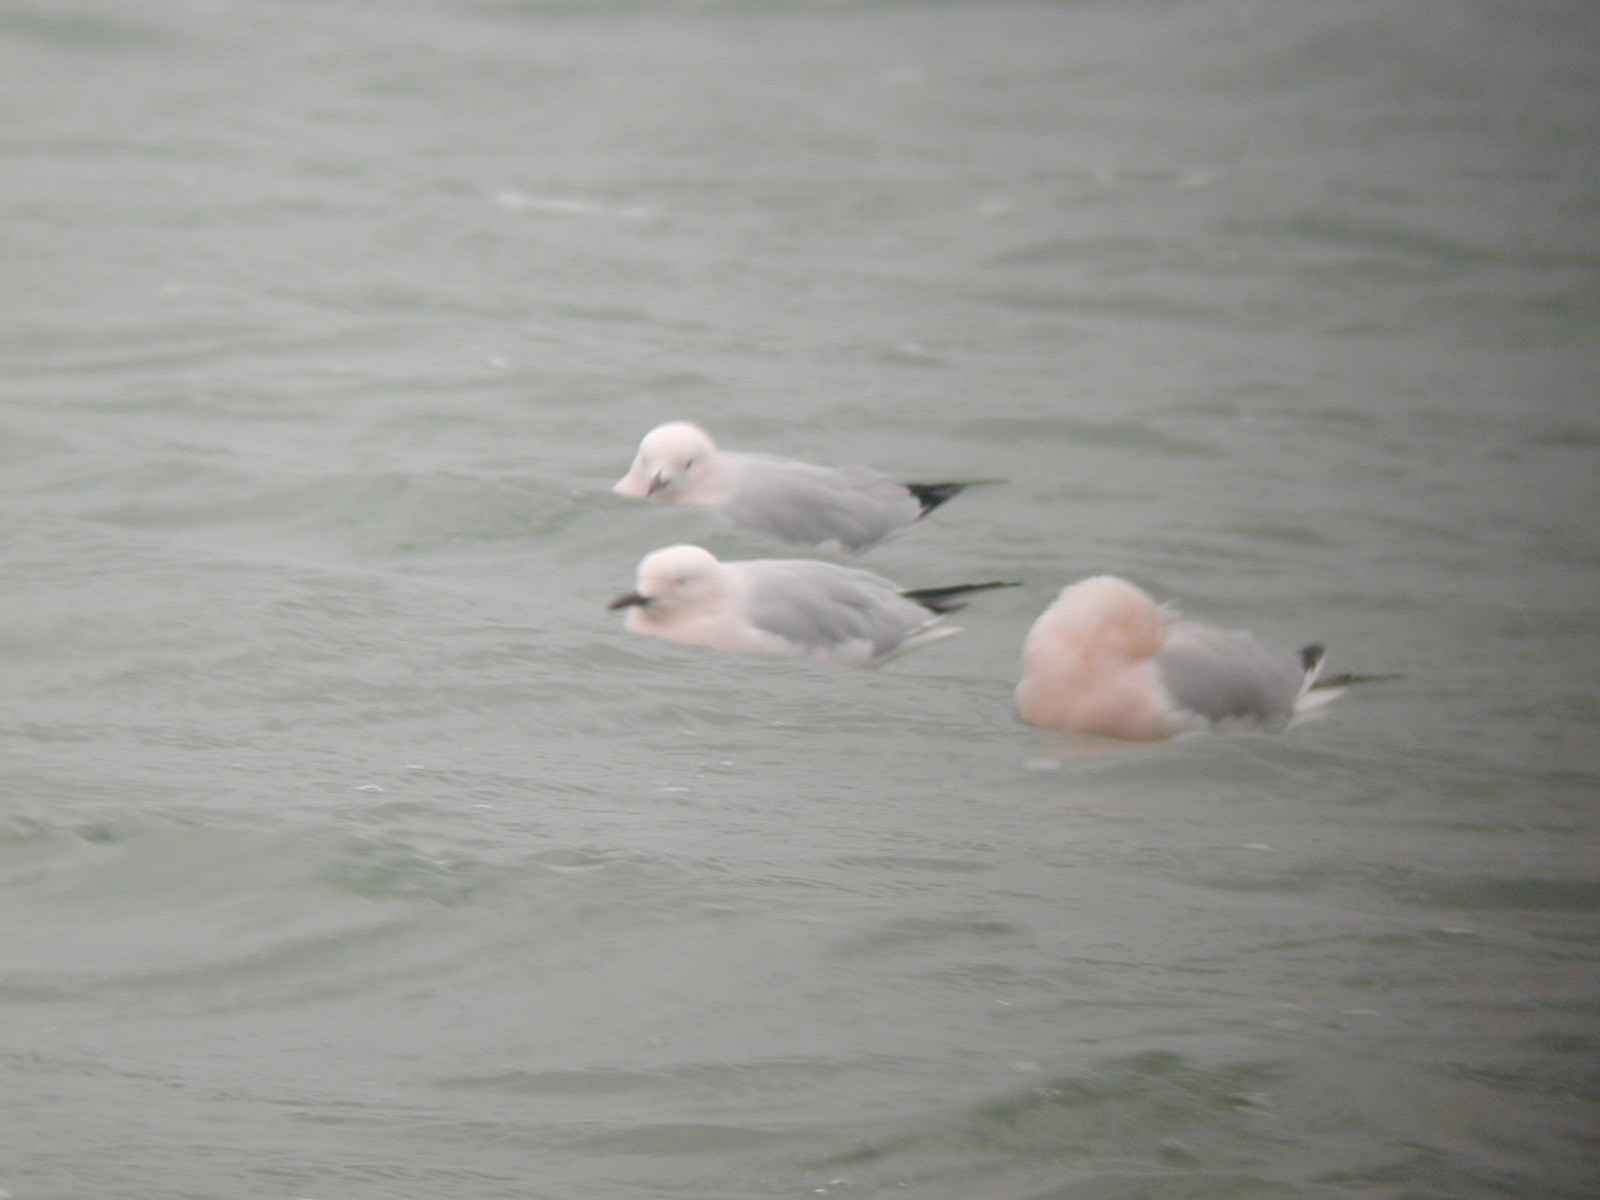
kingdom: Animalia
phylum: Chordata
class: Aves
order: Charadriiformes
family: Laridae
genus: Chroicocephalus
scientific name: Chroicocephalus genei
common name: Slender-billed gull
